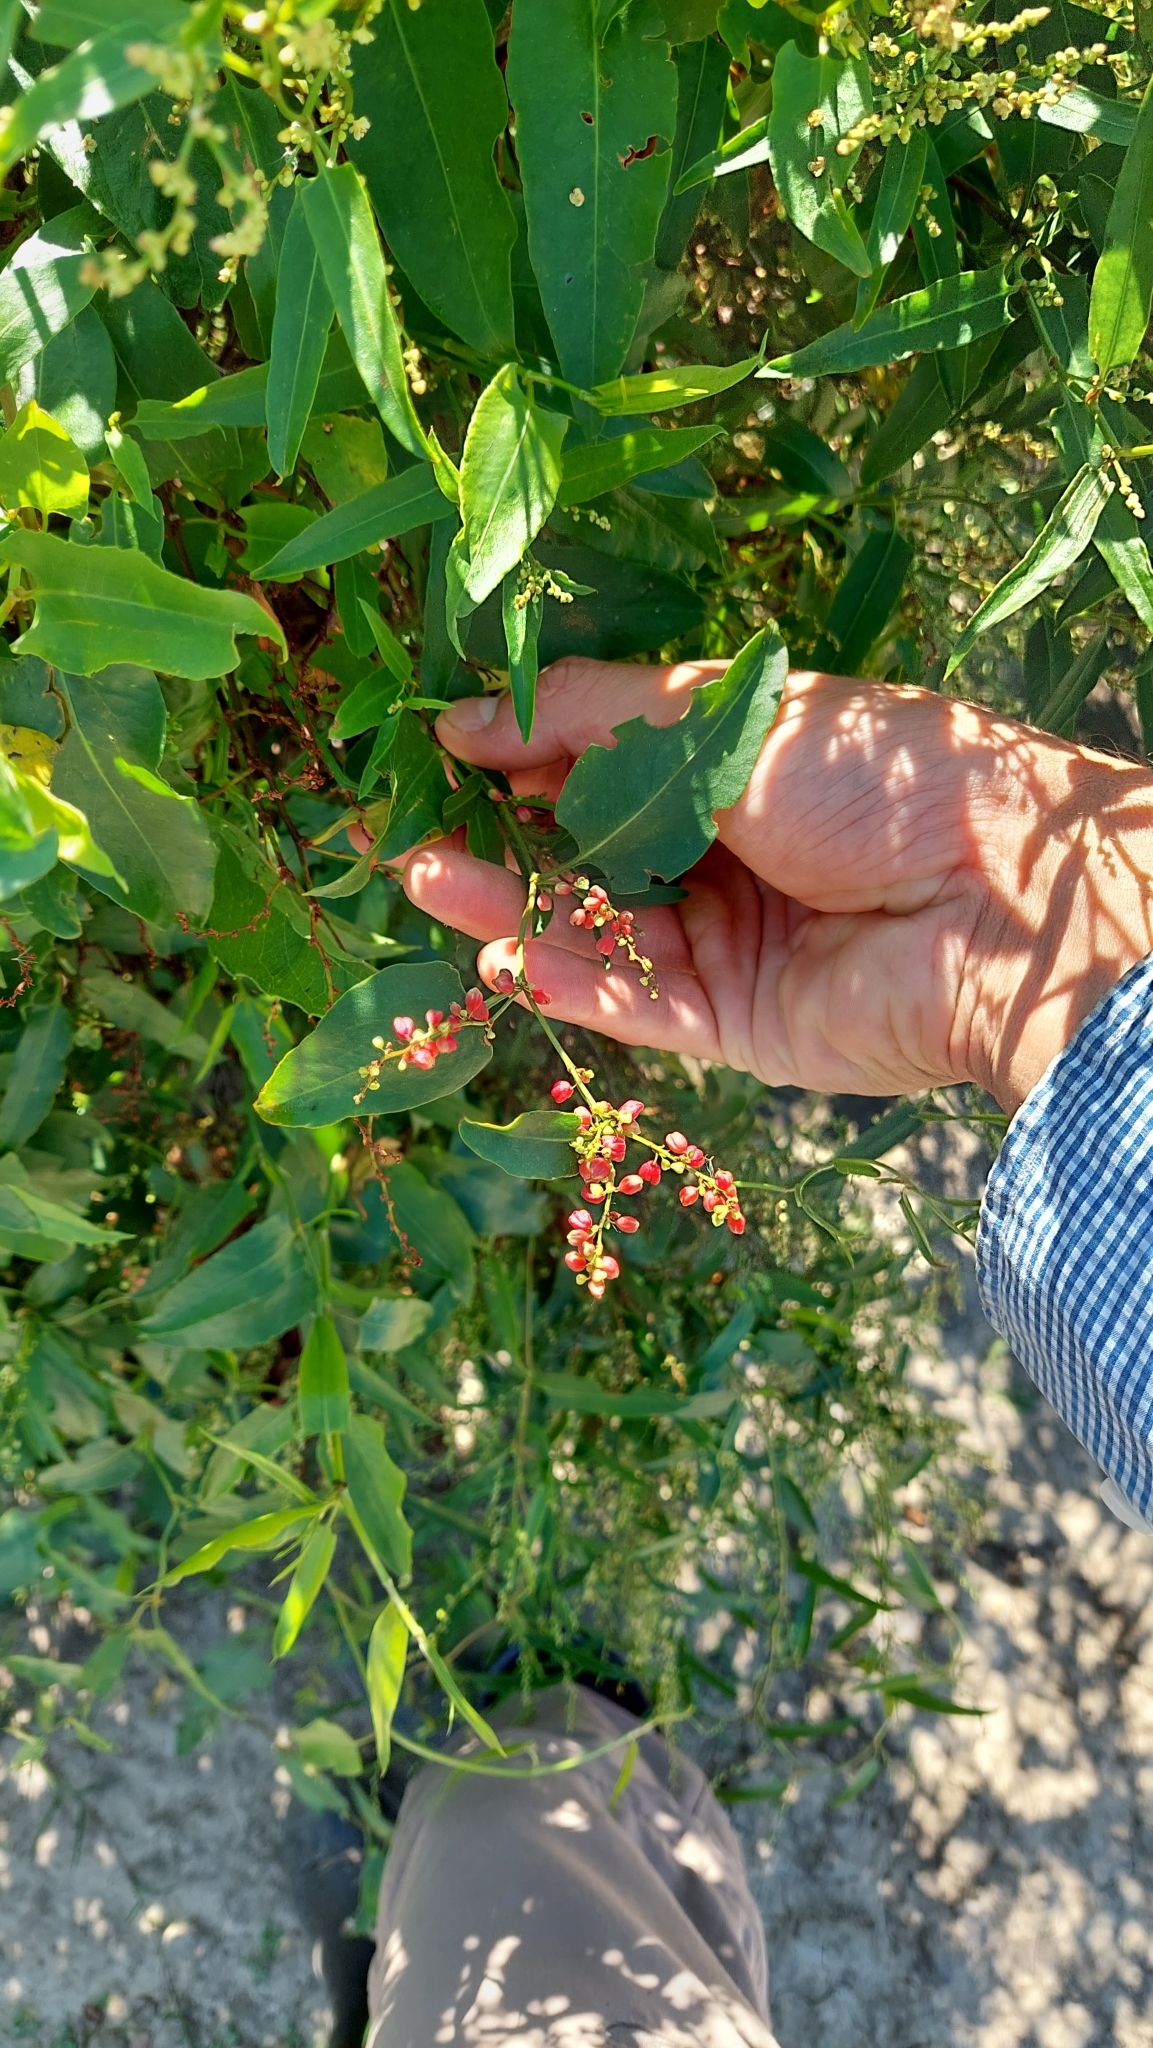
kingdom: Plantae
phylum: Tracheophyta
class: Magnoliopsida
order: Caryophyllales
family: Polygonaceae
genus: Muehlenbeckia
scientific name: Muehlenbeckia sagittifolia
